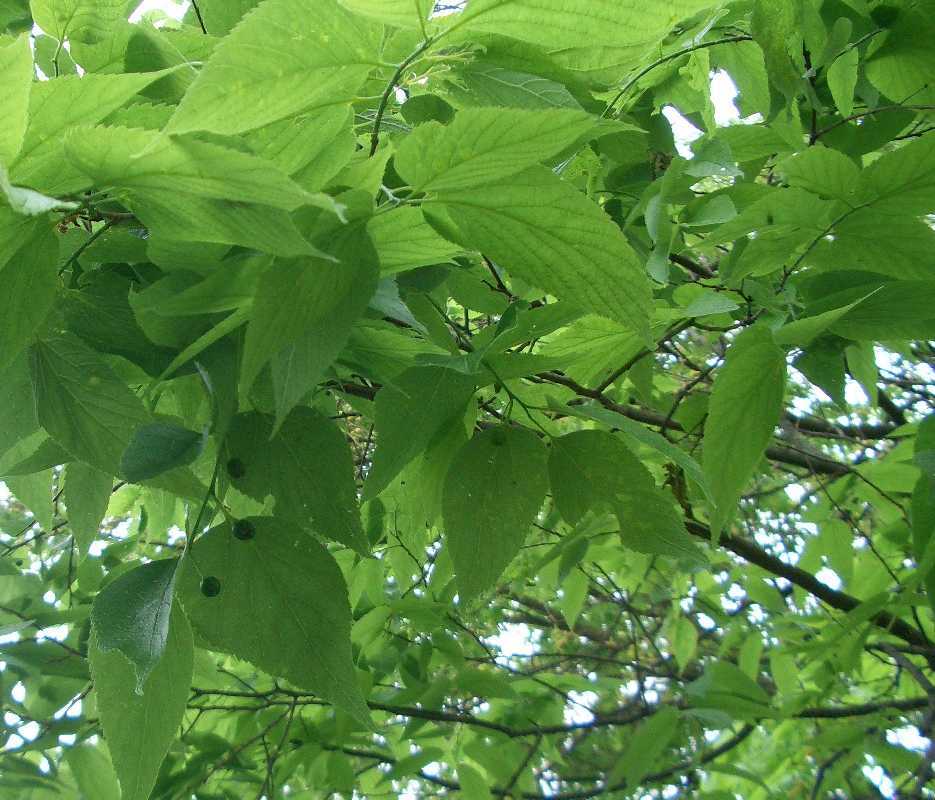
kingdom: Plantae
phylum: Tracheophyta
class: Magnoliopsida
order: Rosales
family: Cannabaceae
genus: Celtis
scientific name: Celtis occidentalis
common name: Common hackberry
